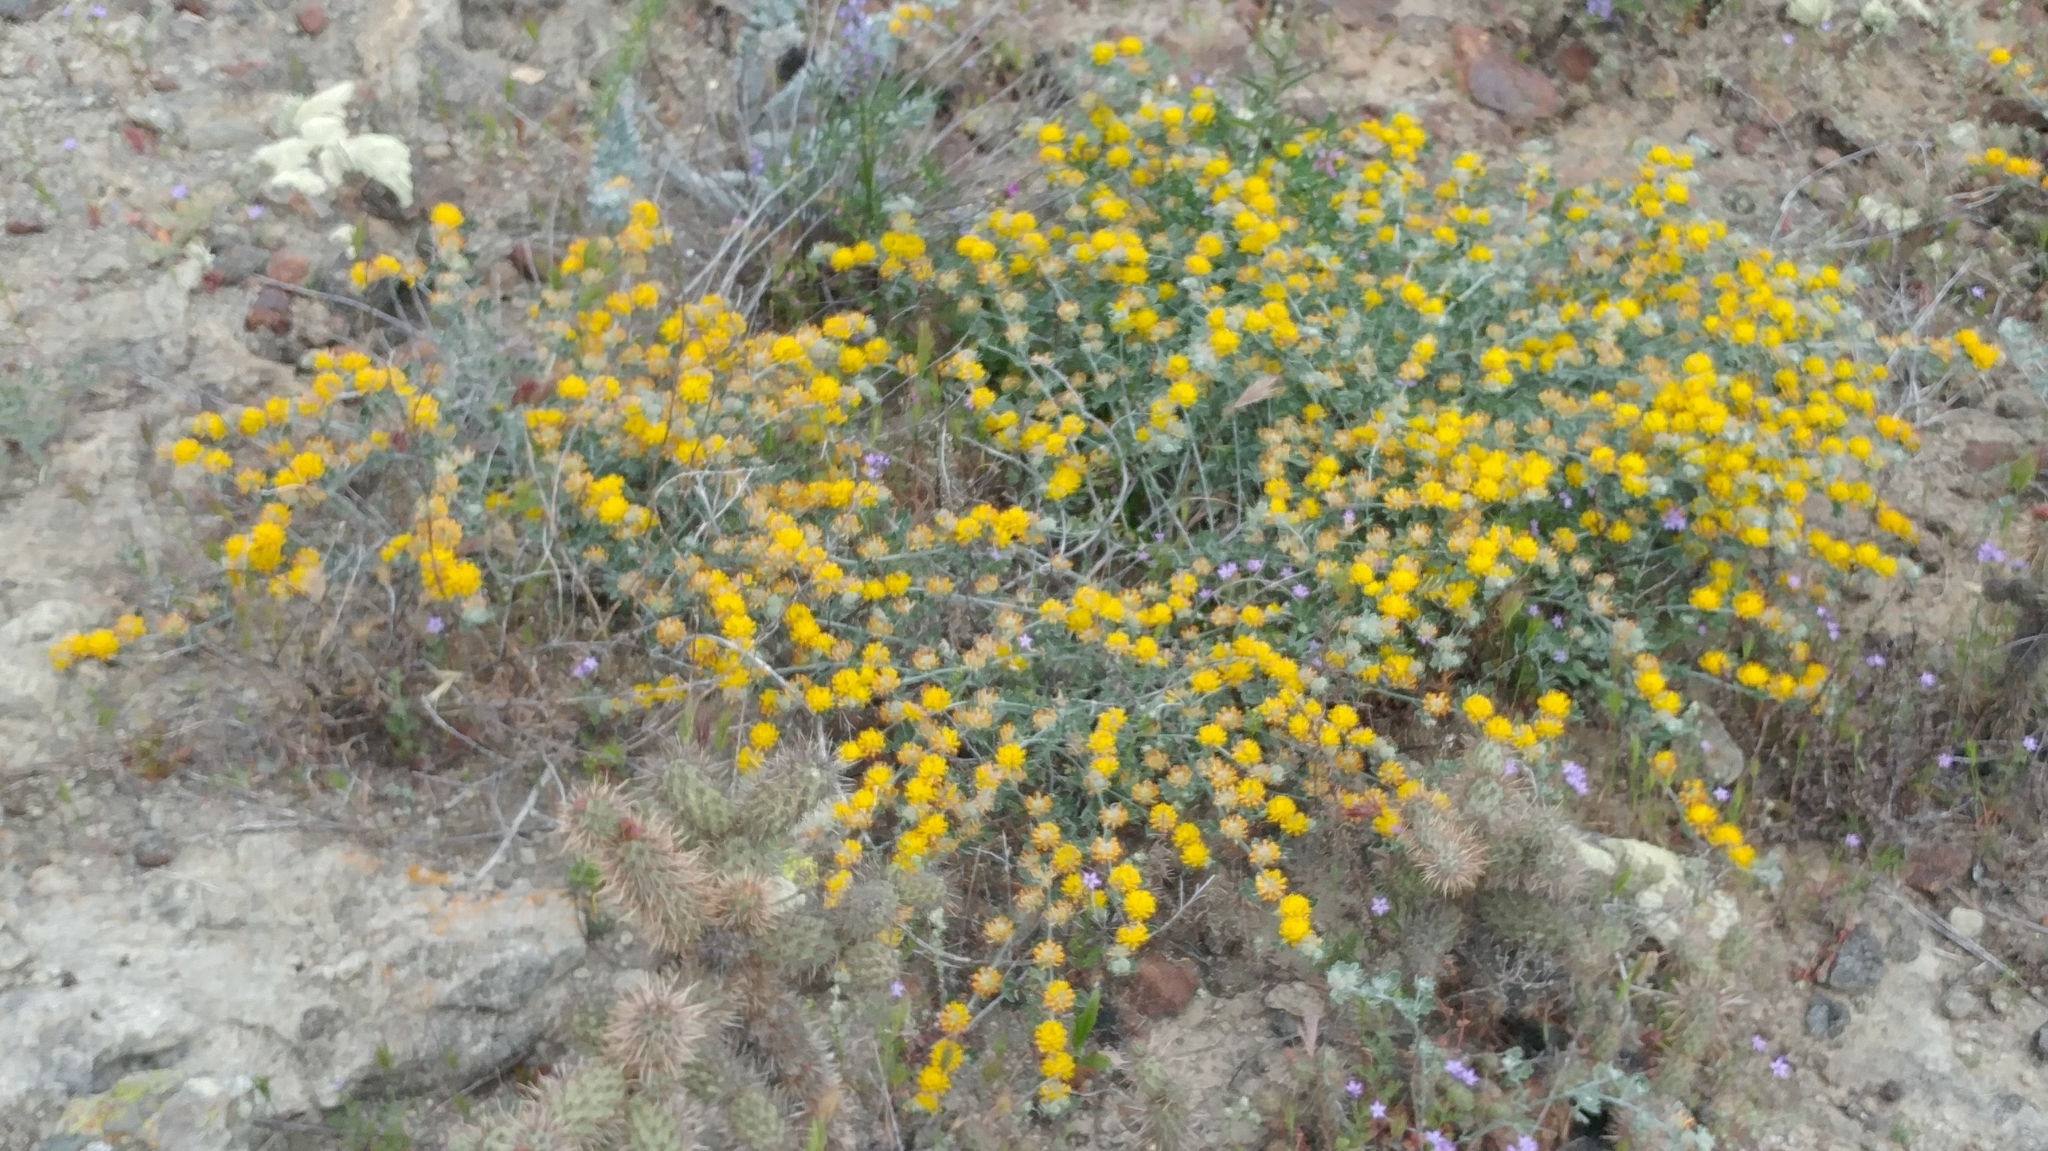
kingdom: Plantae
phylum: Tracheophyta
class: Magnoliopsida
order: Fabales
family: Fabaceae
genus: Acmispon
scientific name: Acmispon argophyllus
